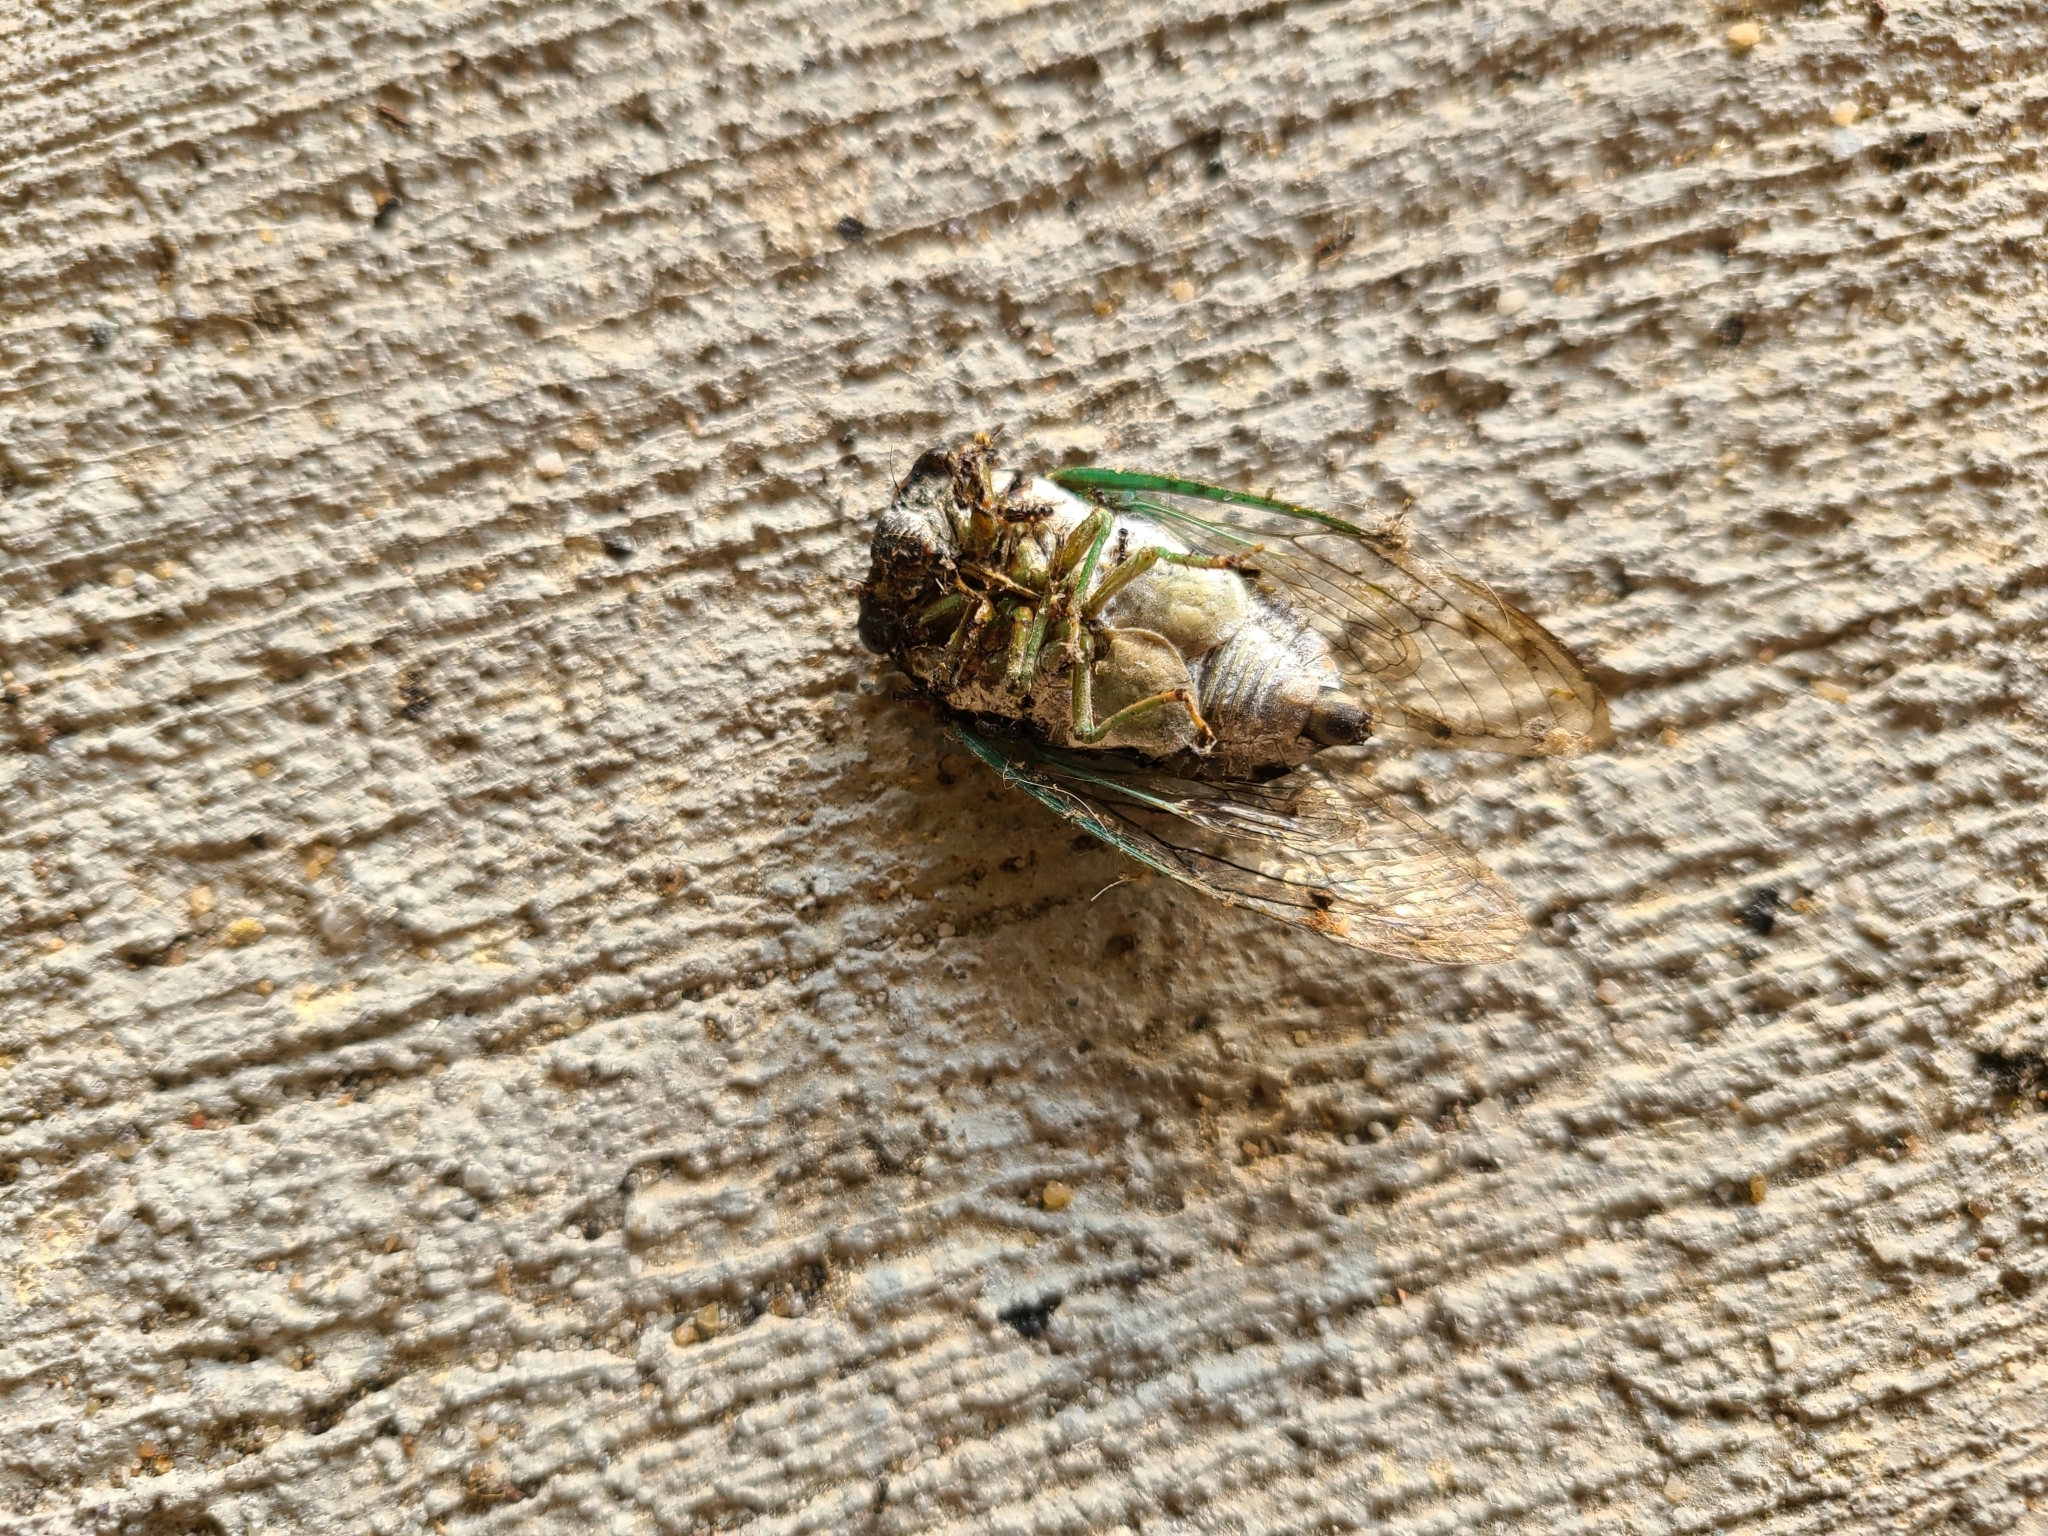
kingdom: Animalia
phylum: Arthropoda
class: Insecta
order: Hemiptera
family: Cicadidae
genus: Neotibicen
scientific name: Neotibicen tibicen
